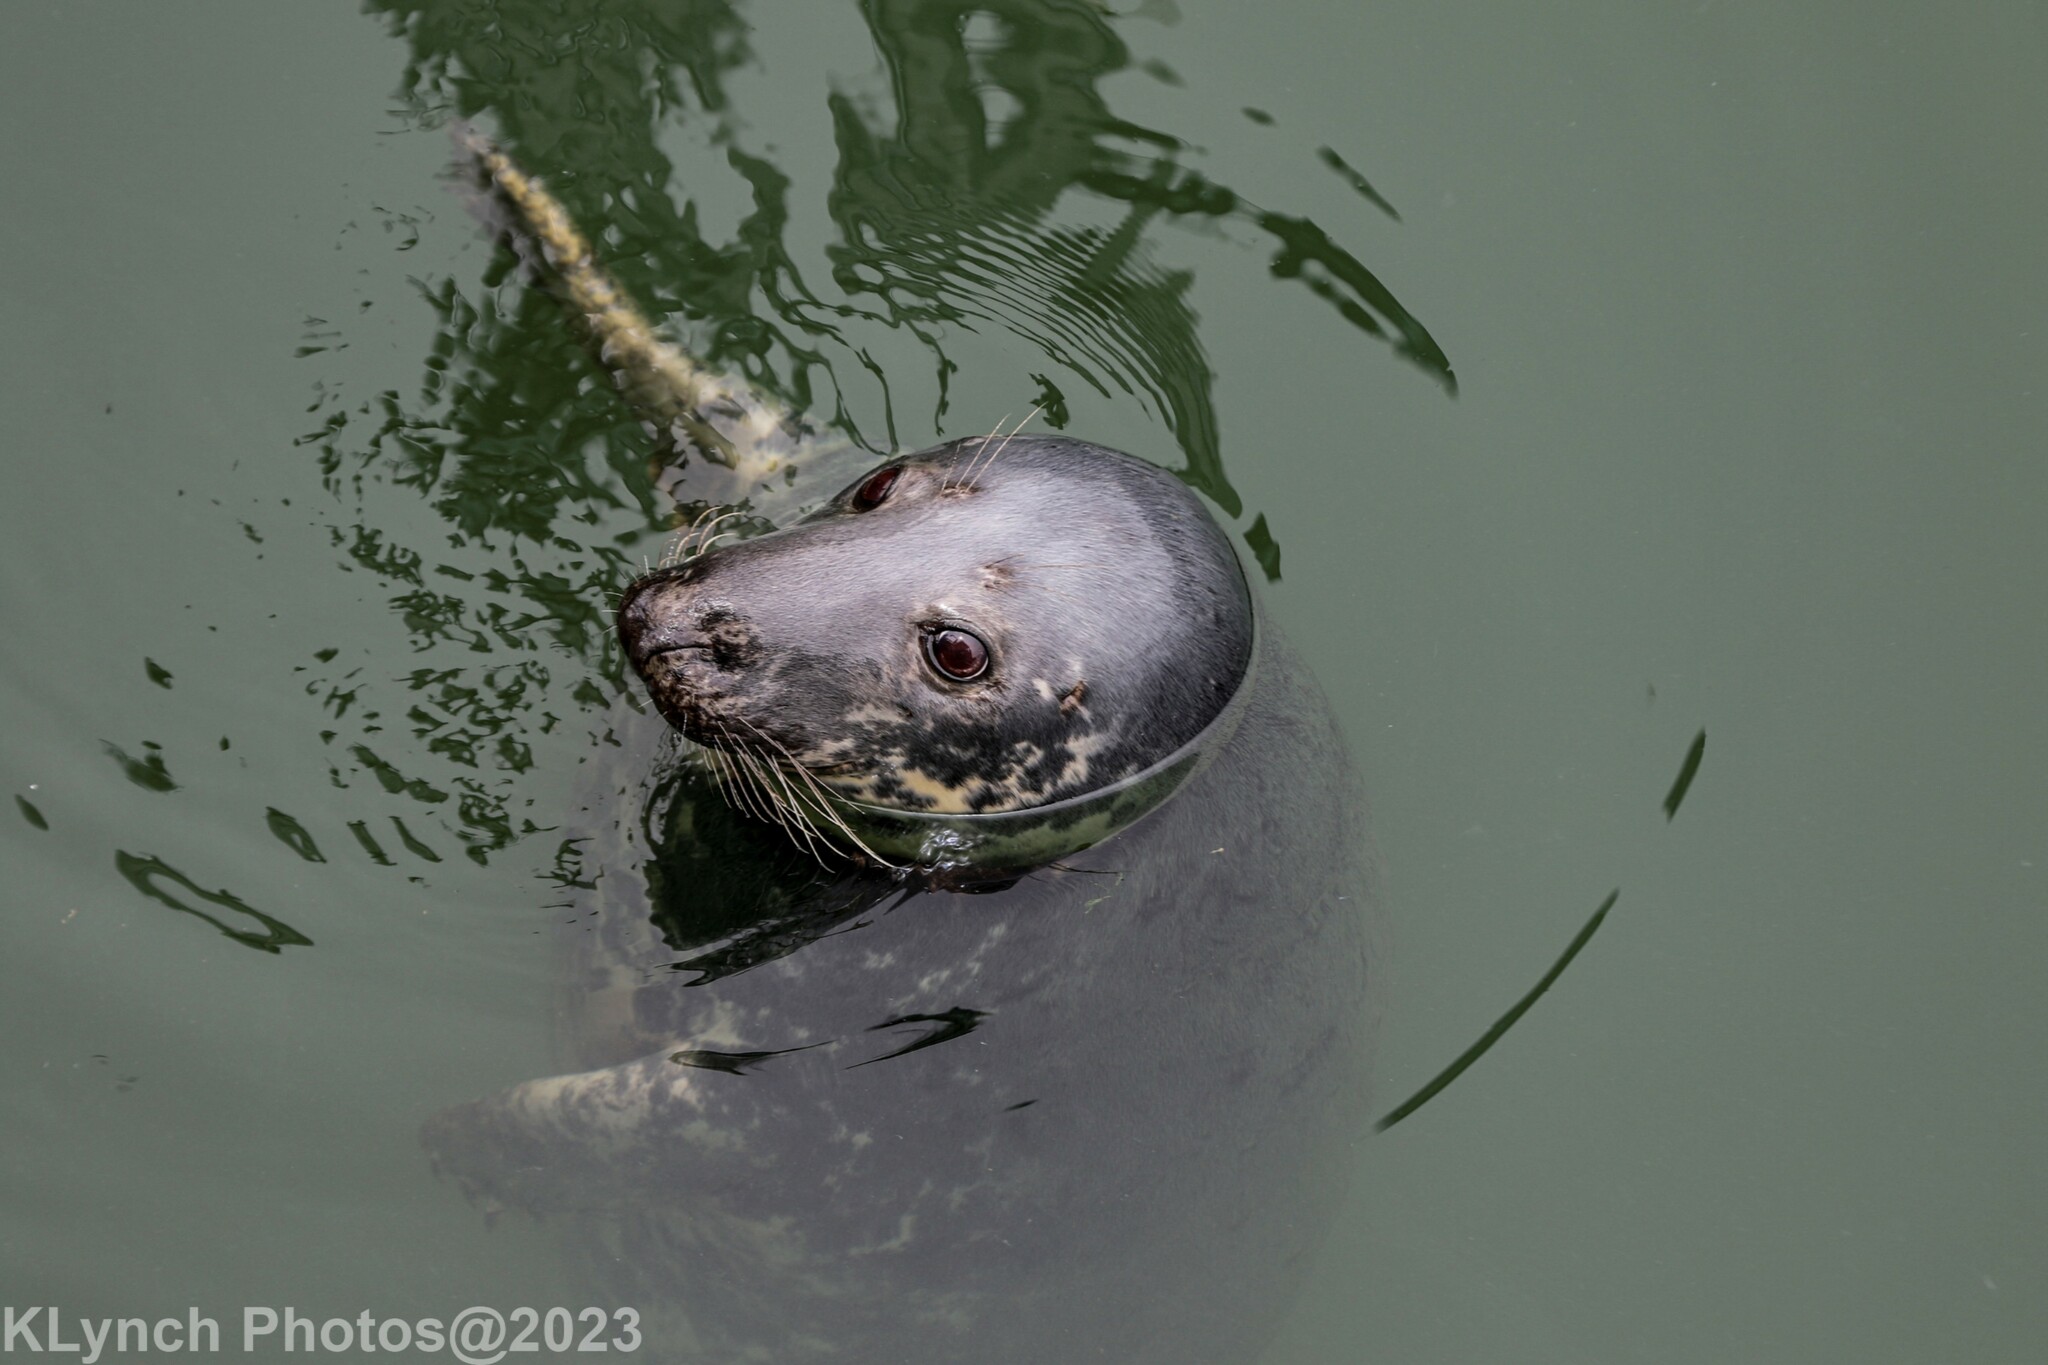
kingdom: Animalia
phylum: Chordata
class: Mammalia
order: Carnivora
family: Phocidae
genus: Halichoerus
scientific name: Halichoerus grypus
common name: Grey seal
